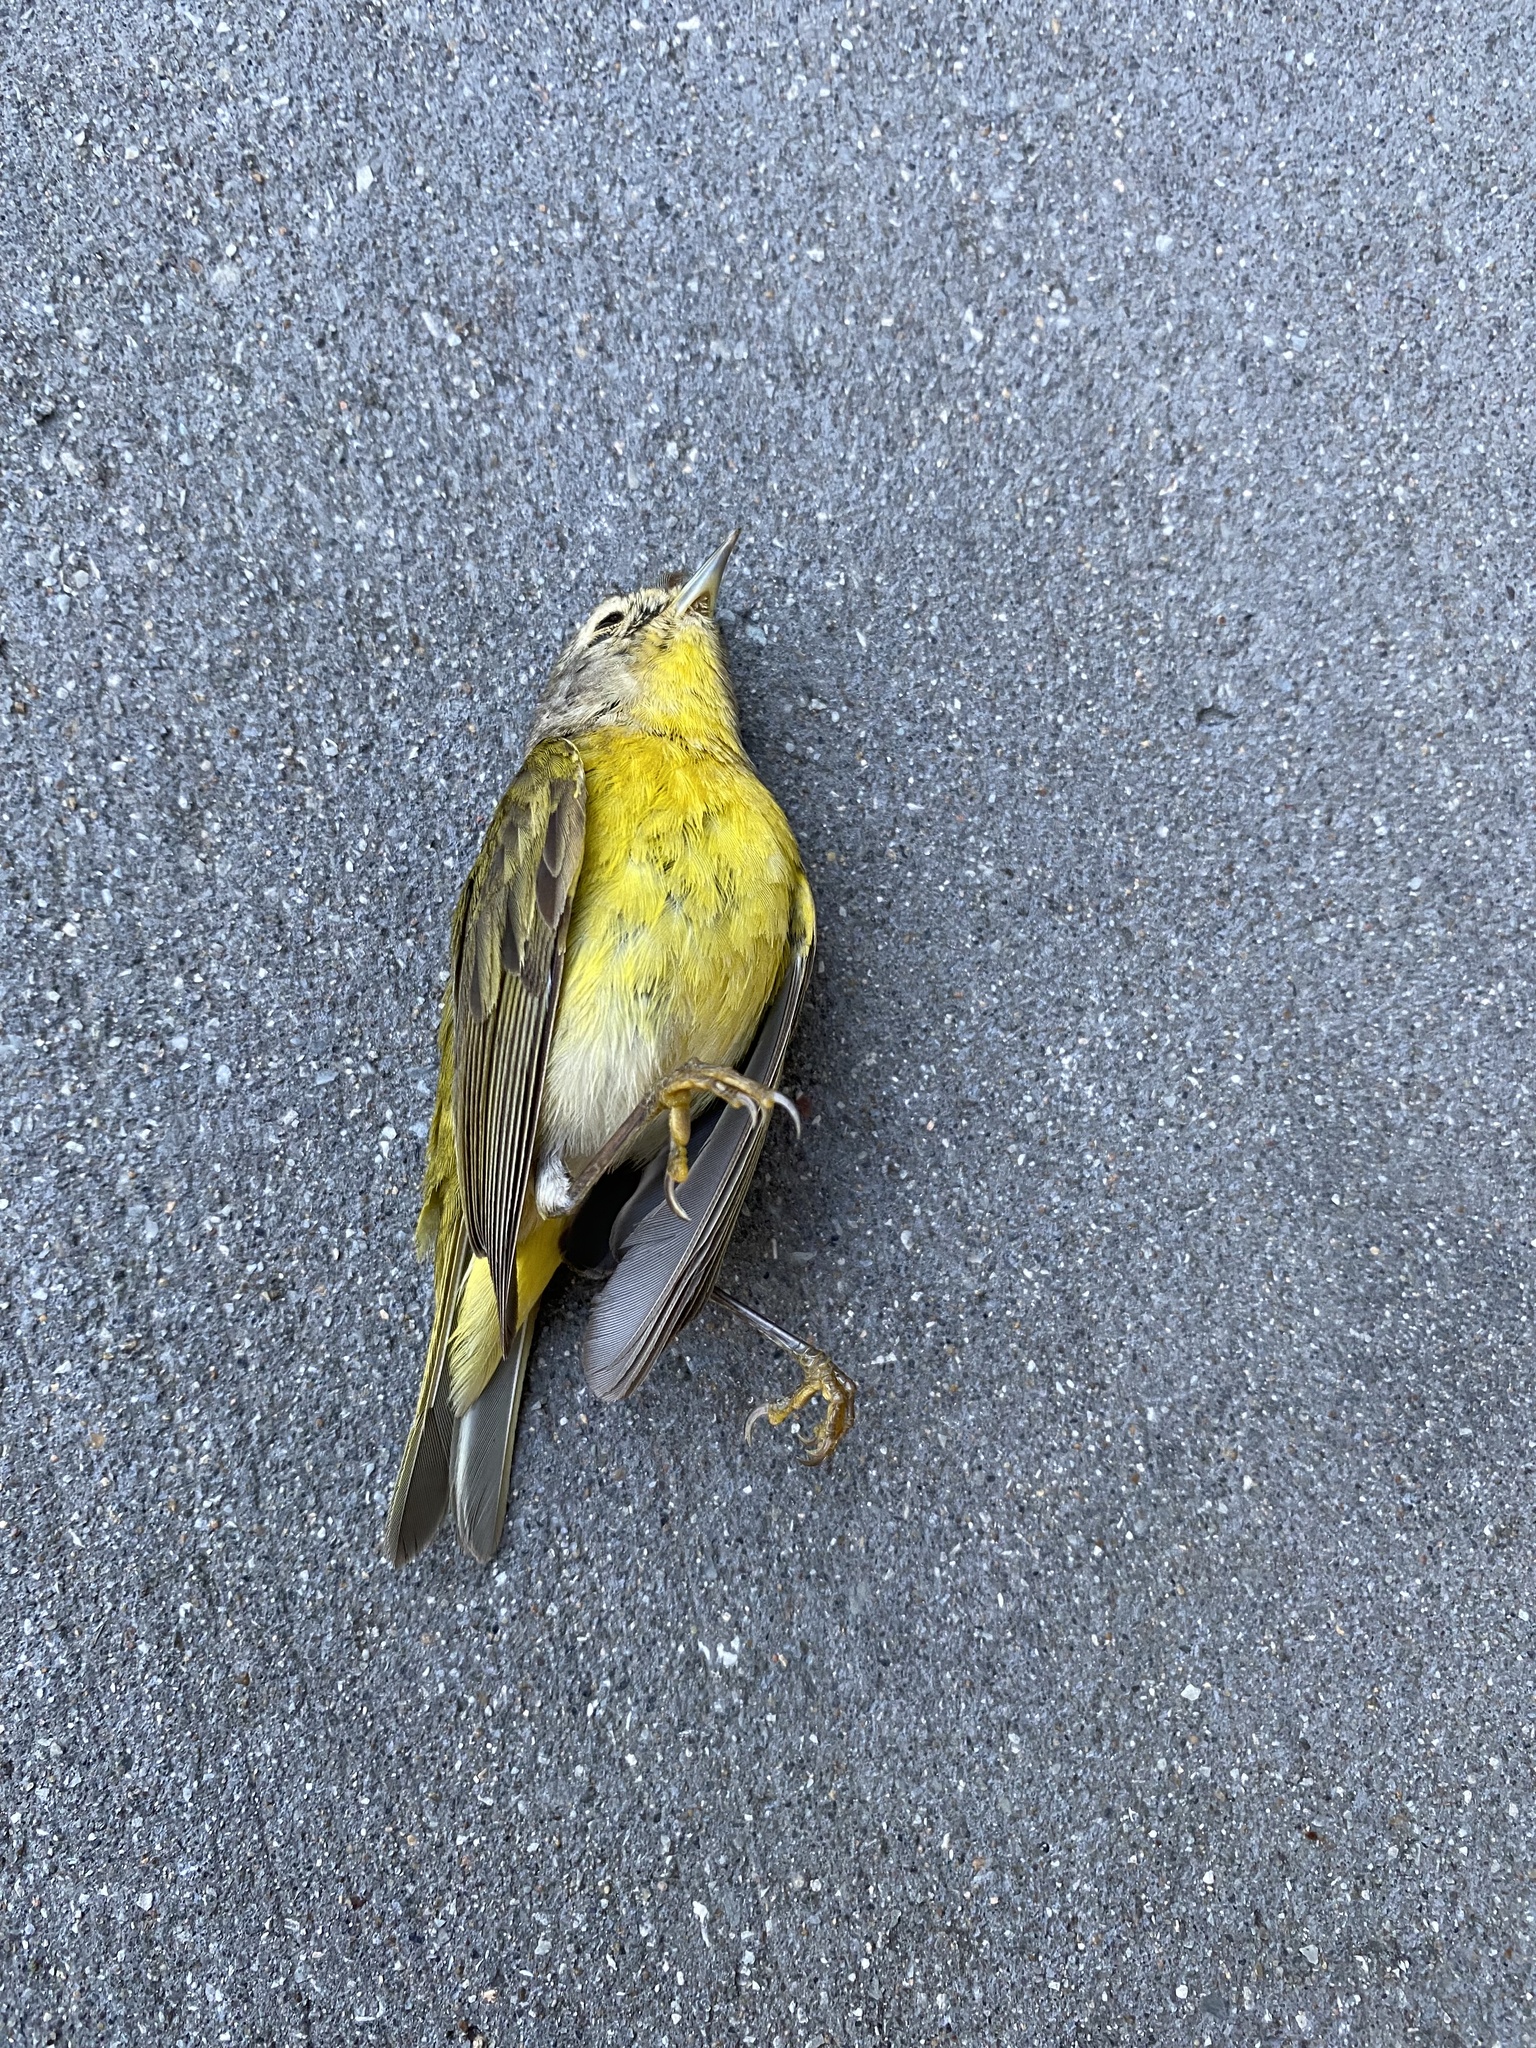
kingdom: Animalia
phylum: Chordata
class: Aves
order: Passeriformes
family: Parulidae
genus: Leiothlypis
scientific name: Leiothlypis ruficapilla
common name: Nashville warbler
